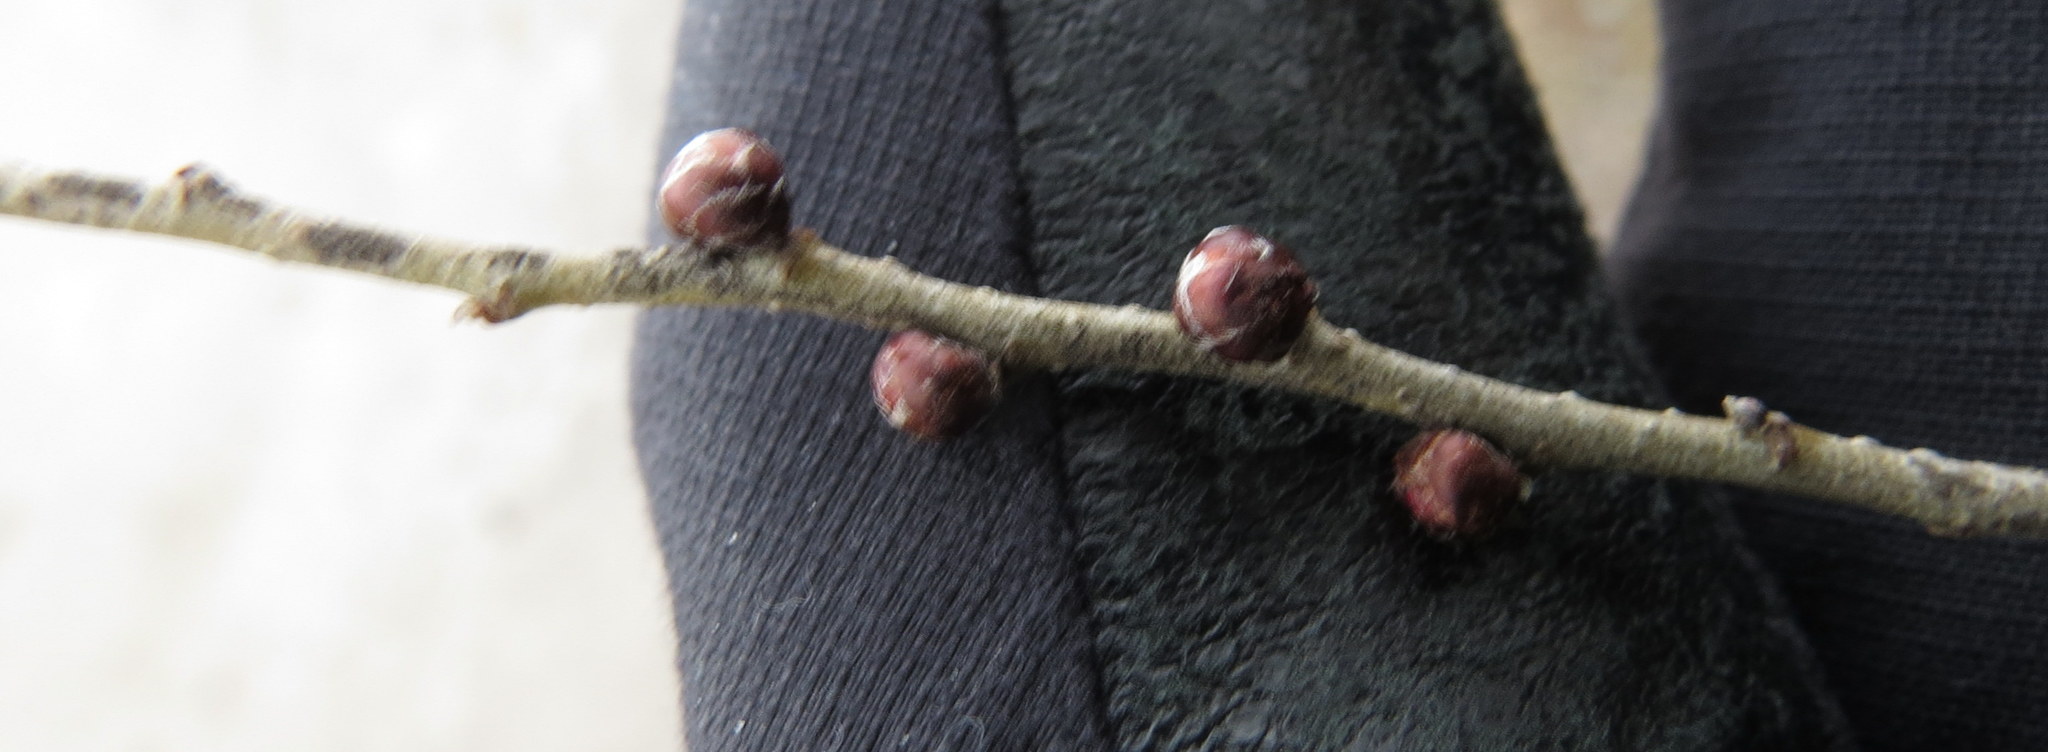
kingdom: Plantae
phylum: Tracheophyta
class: Magnoliopsida
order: Rosales
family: Ulmaceae
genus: Ulmus
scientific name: Ulmus pumila
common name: Siberian elm
